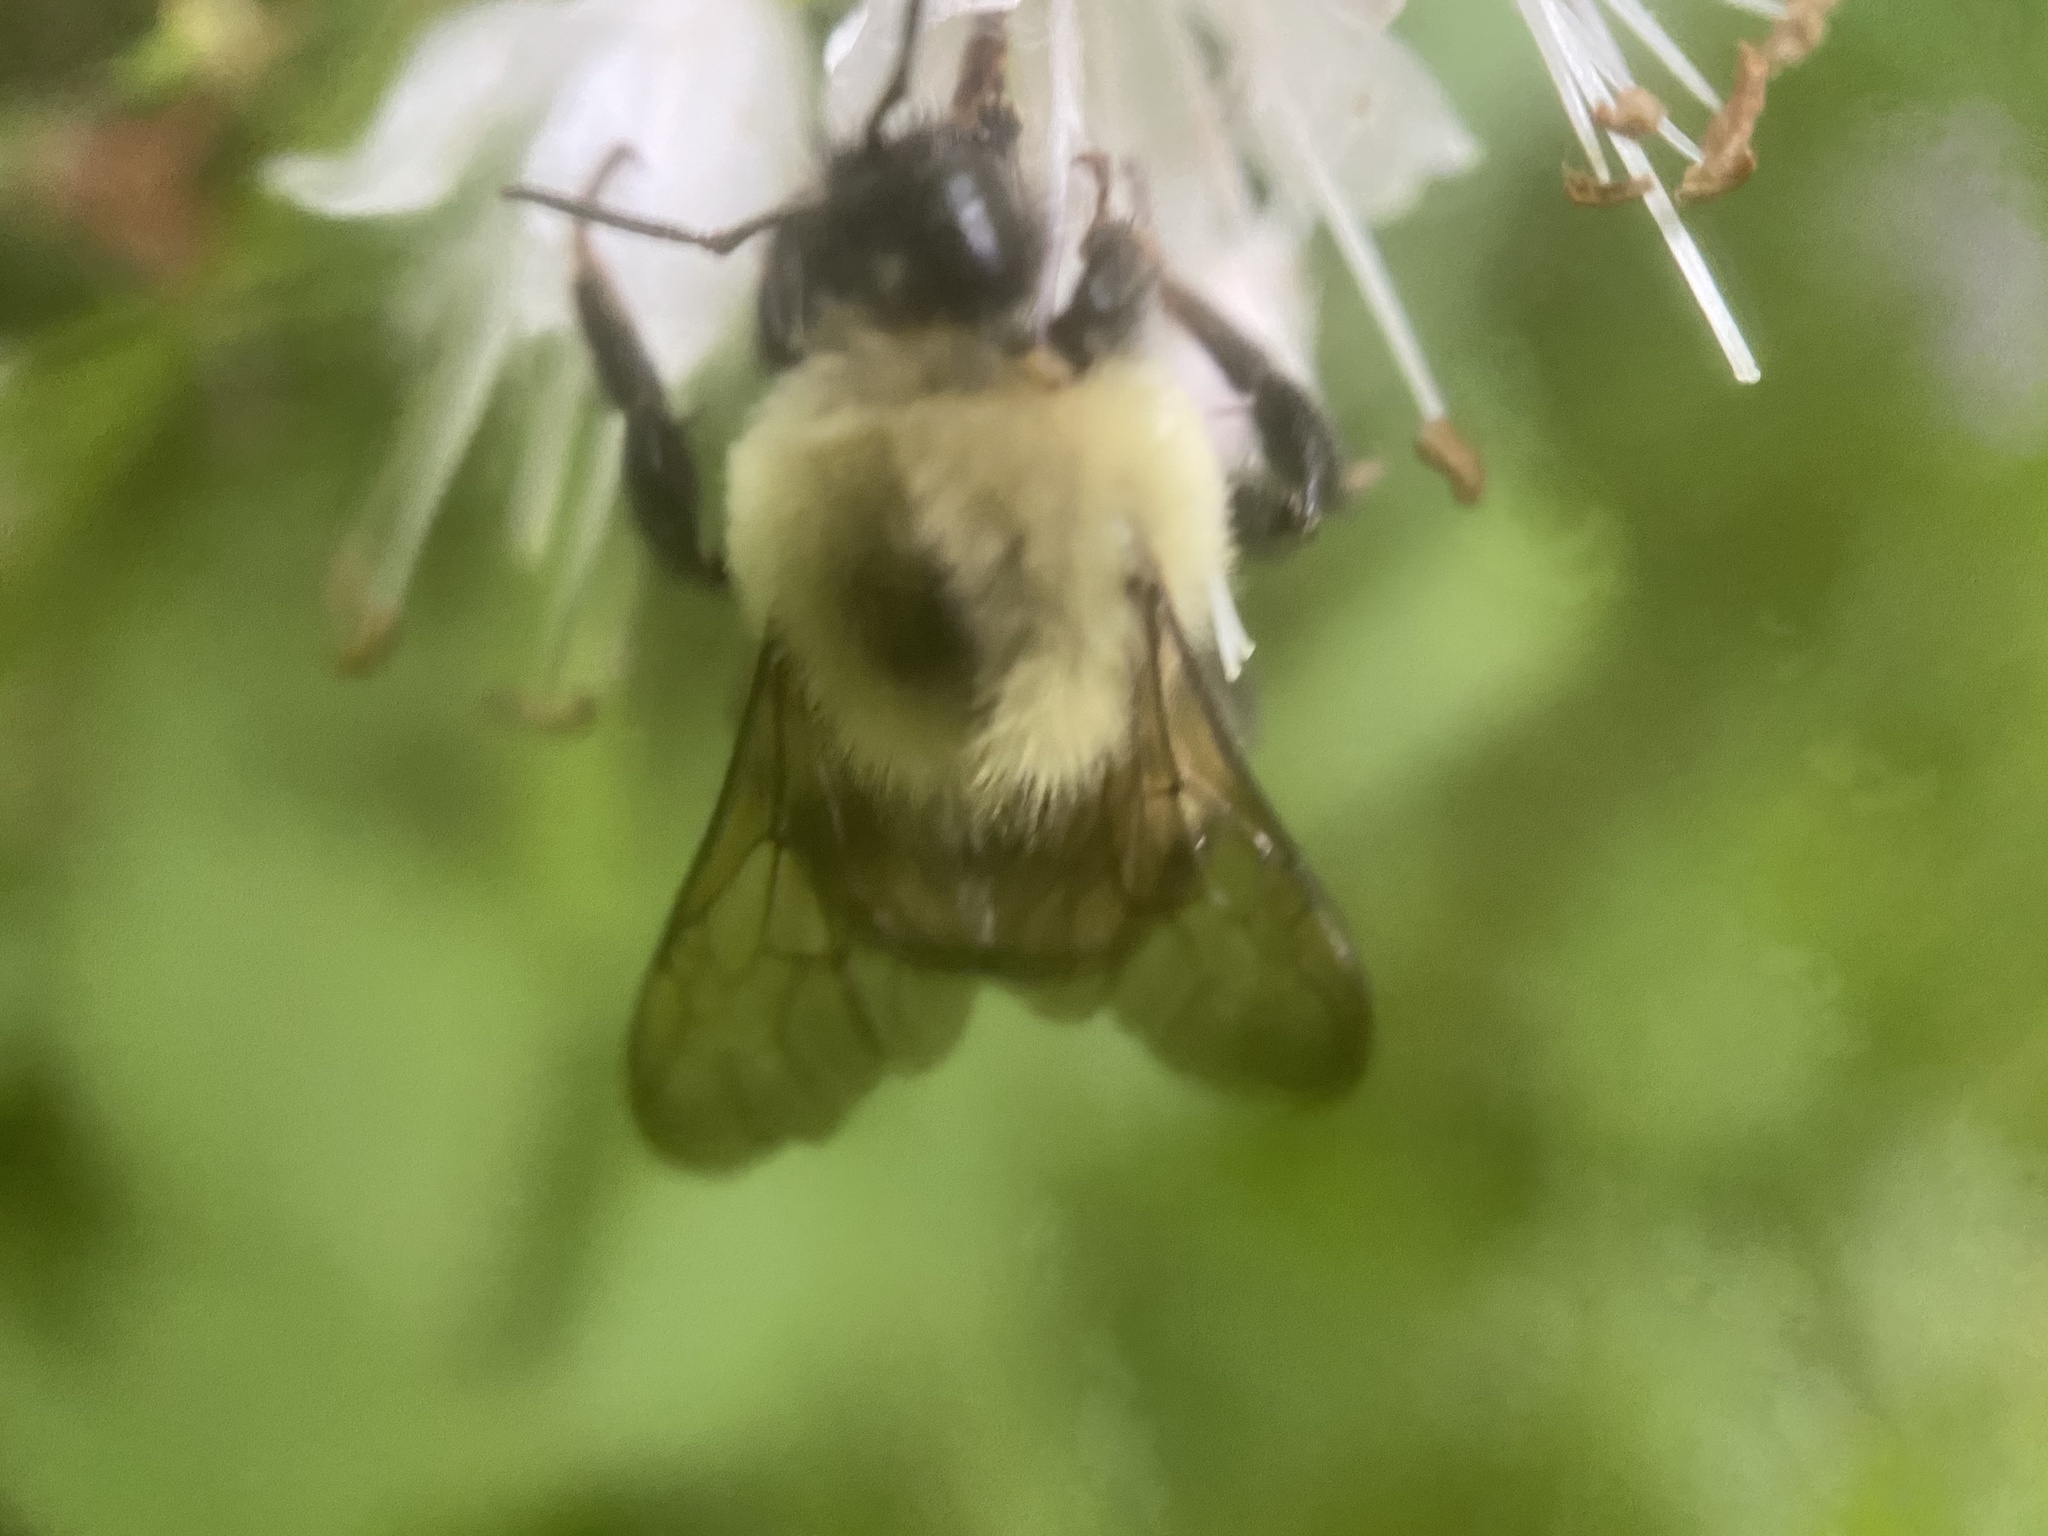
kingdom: Animalia
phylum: Arthropoda
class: Insecta
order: Hymenoptera
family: Apidae
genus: Bombus
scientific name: Bombus bimaculatus
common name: Two-spotted bumble bee
